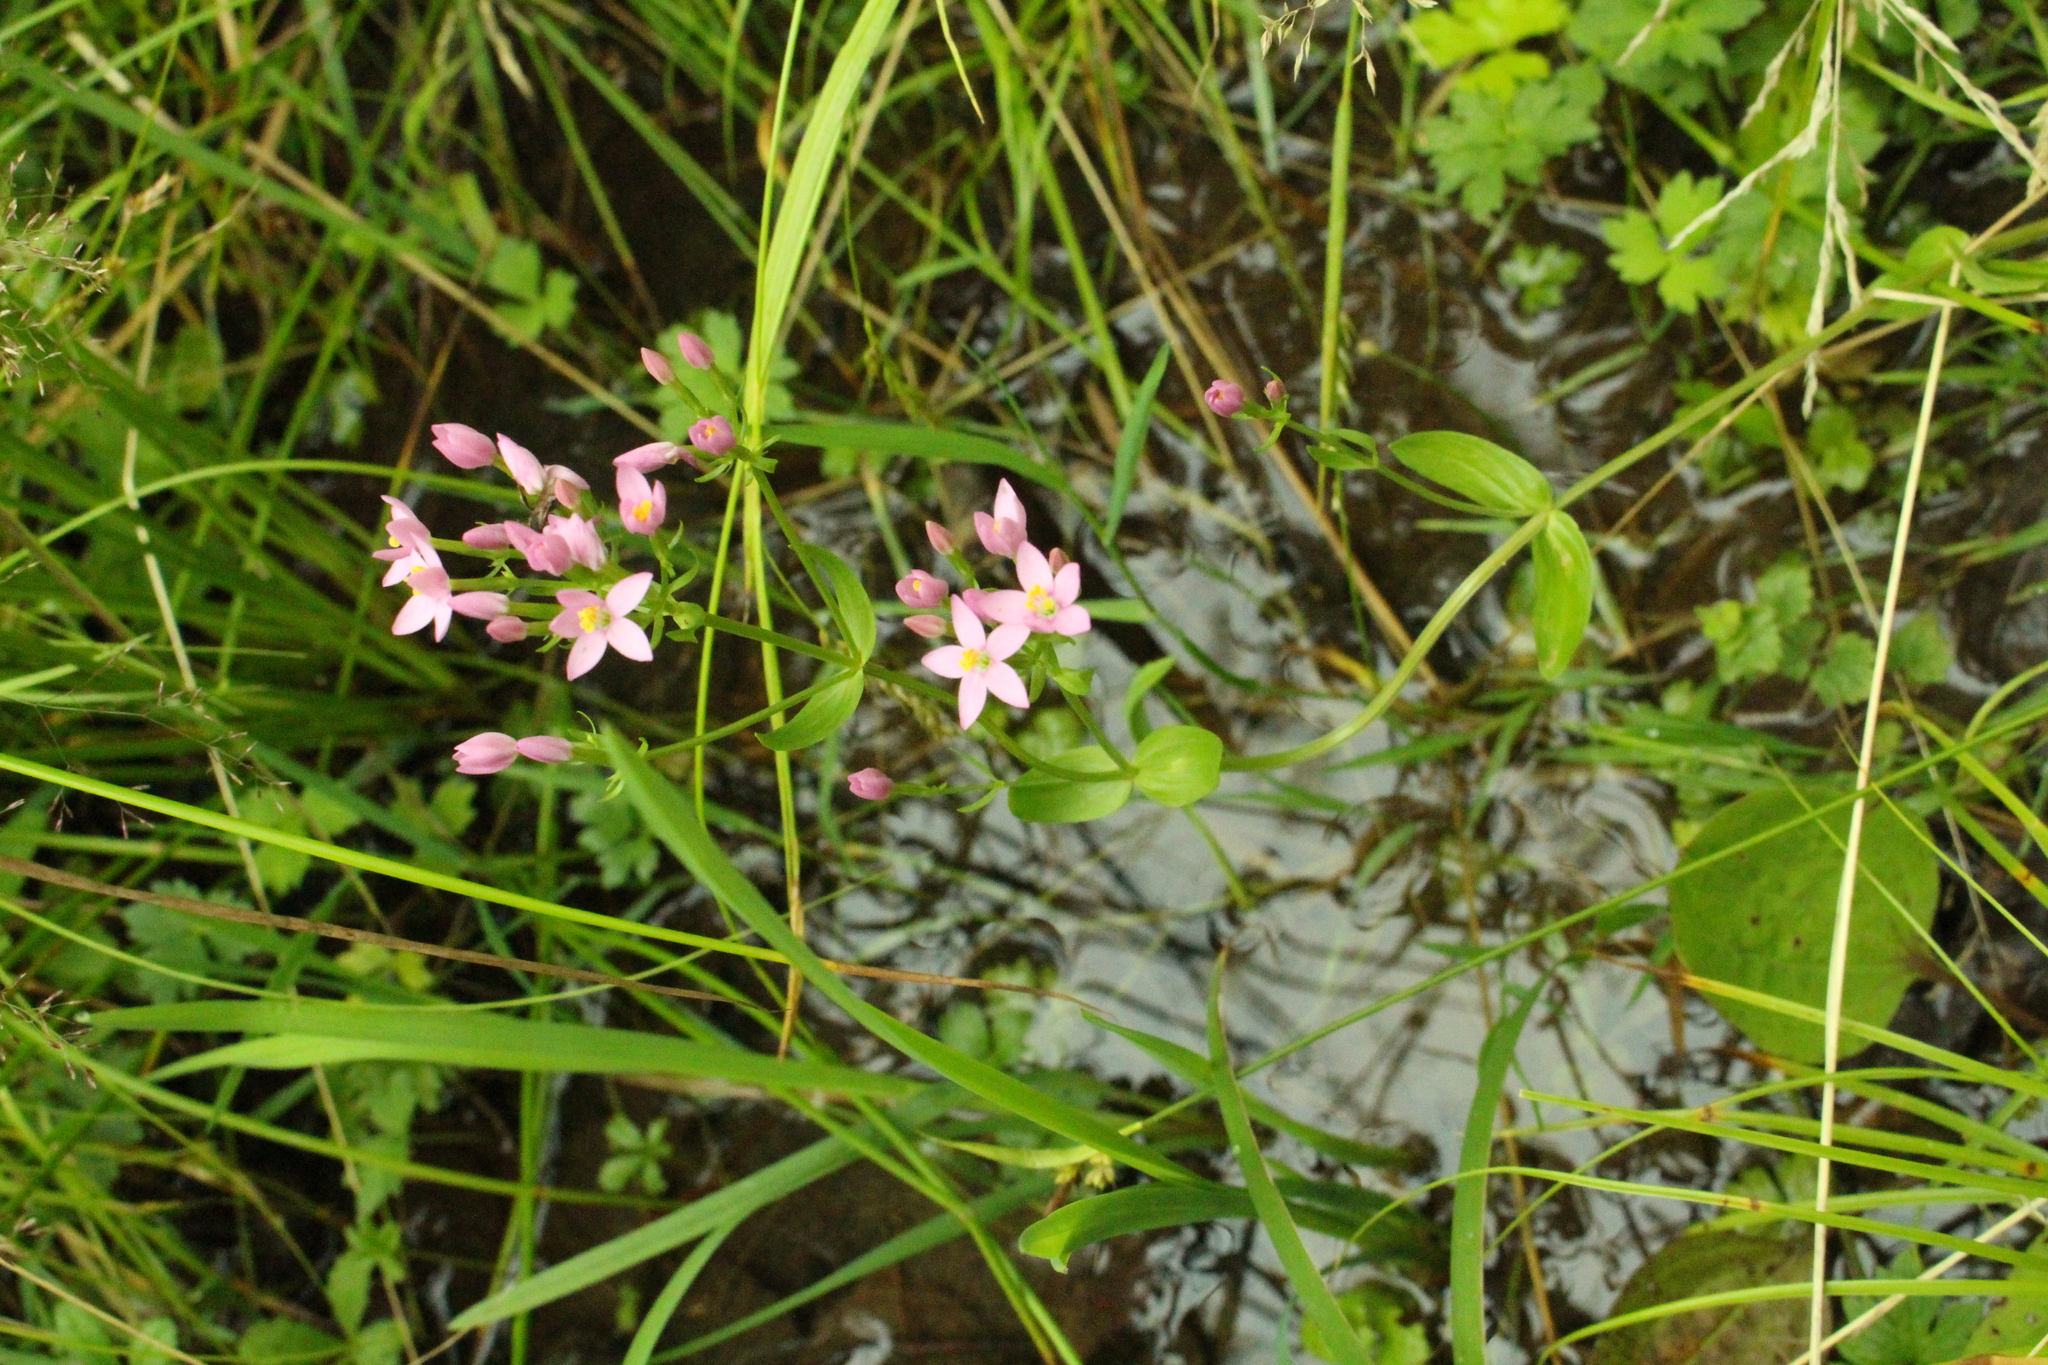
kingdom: Plantae
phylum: Tracheophyta
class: Magnoliopsida
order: Gentianales
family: Gentianaceae
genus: Centaurium
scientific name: Centaurium erythraea
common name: Common centaury
